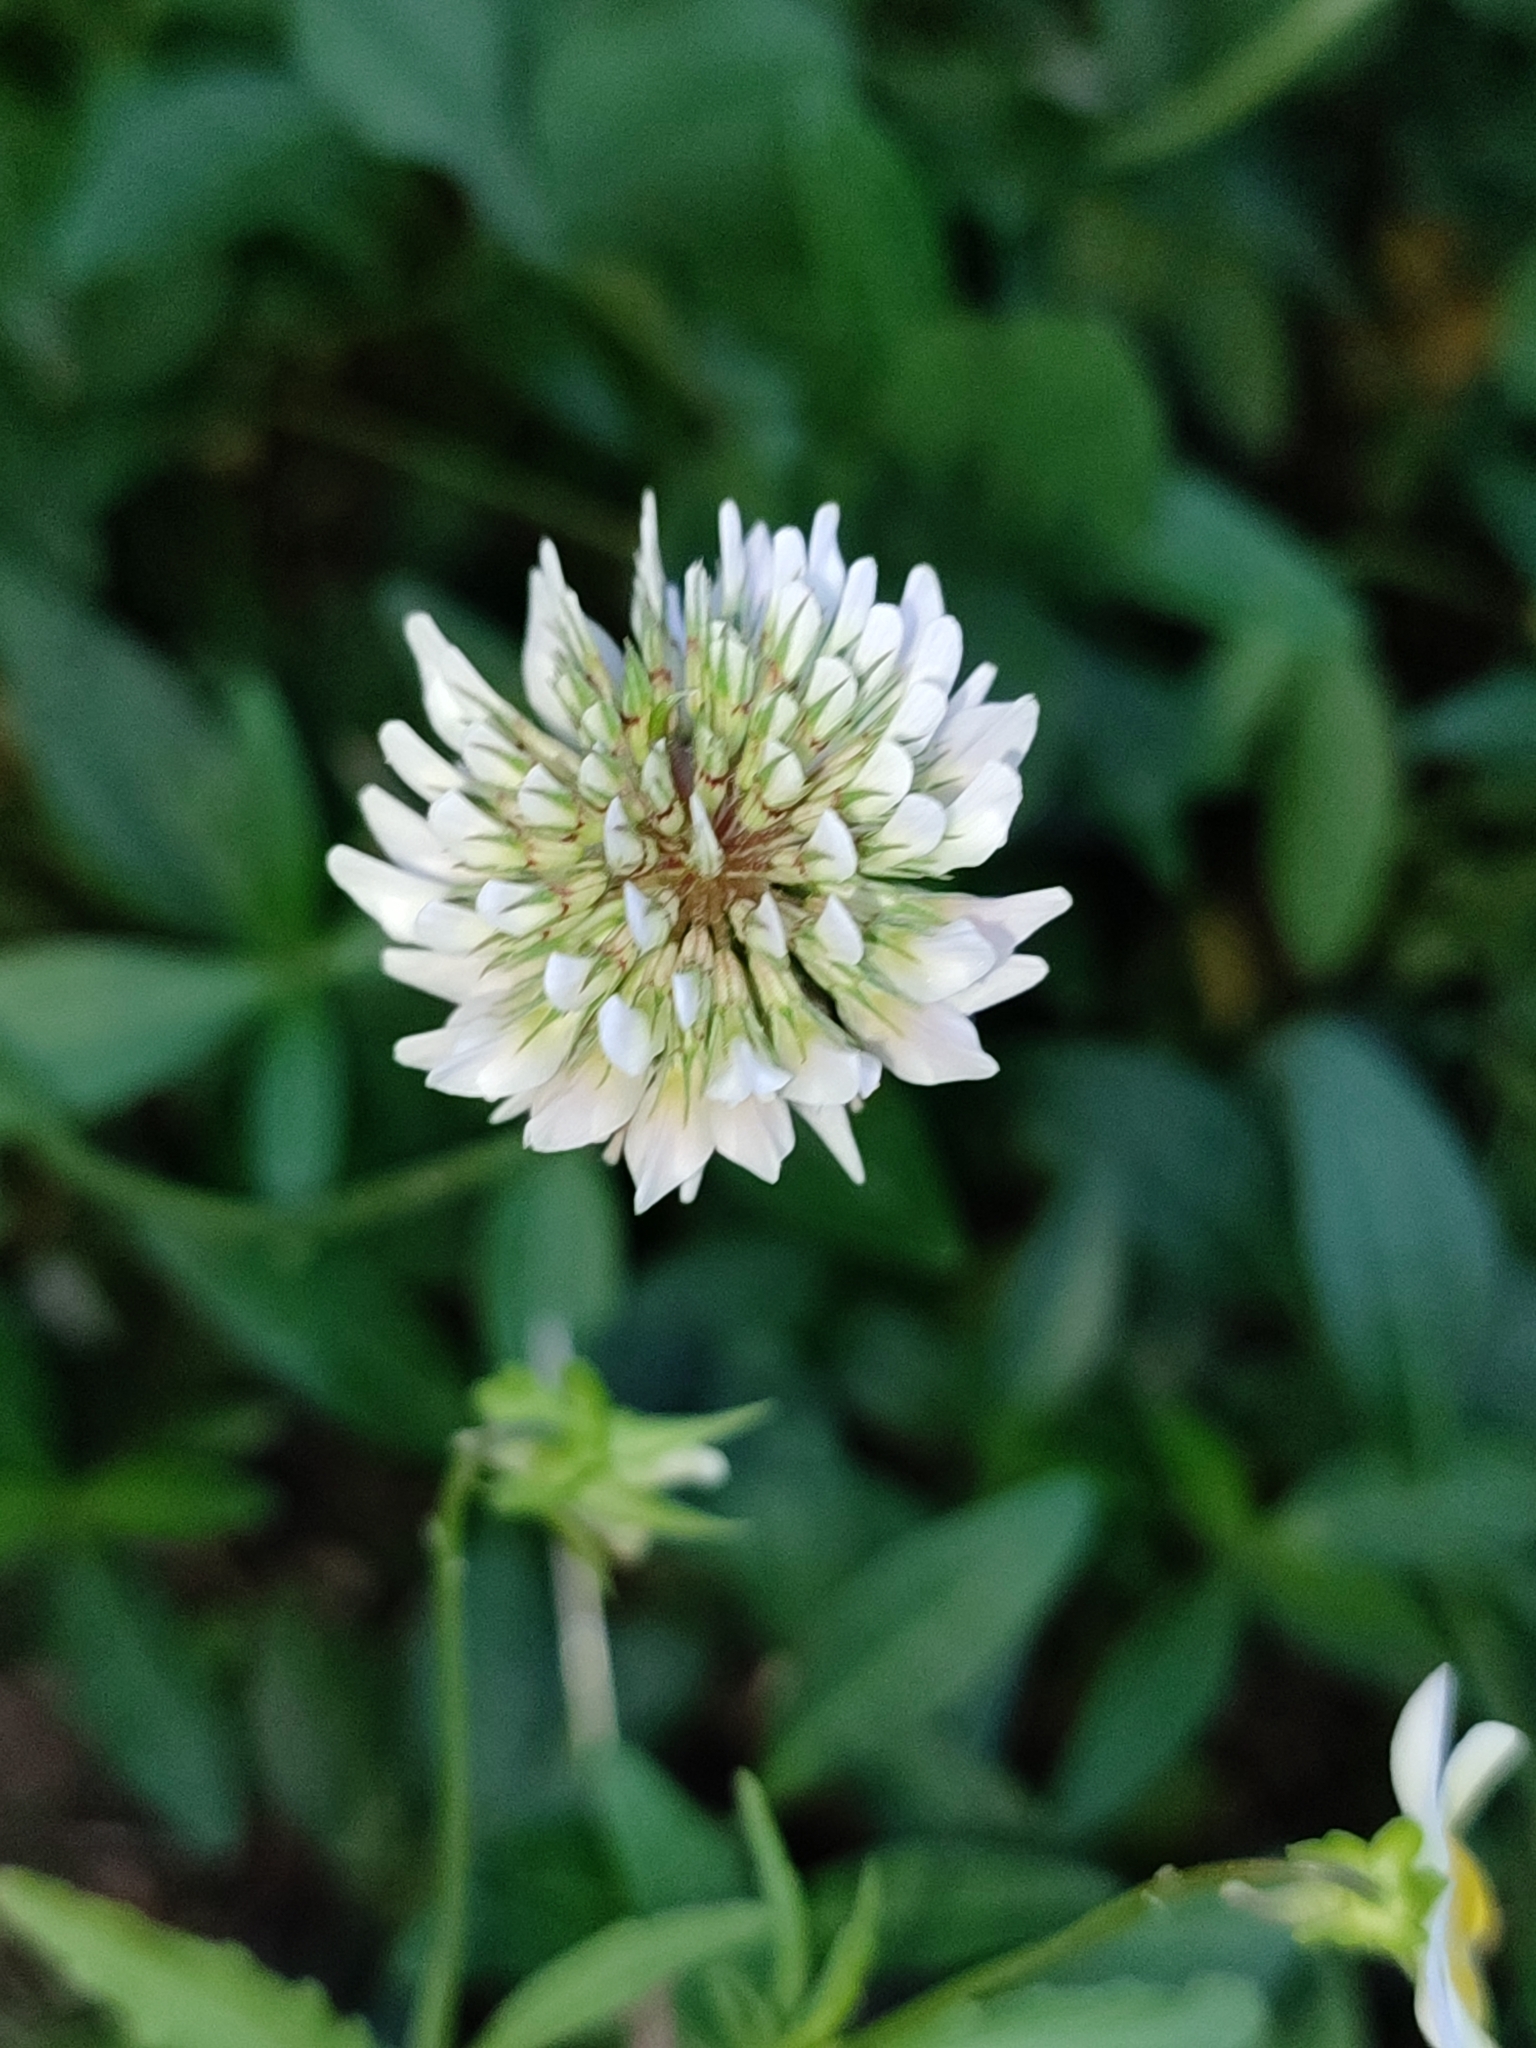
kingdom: Plantae
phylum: Tracheophyta
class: Magnoliopsida
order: Fabales
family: Fabaceae
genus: Trifolium
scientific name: Trifolium repens
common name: White clover
